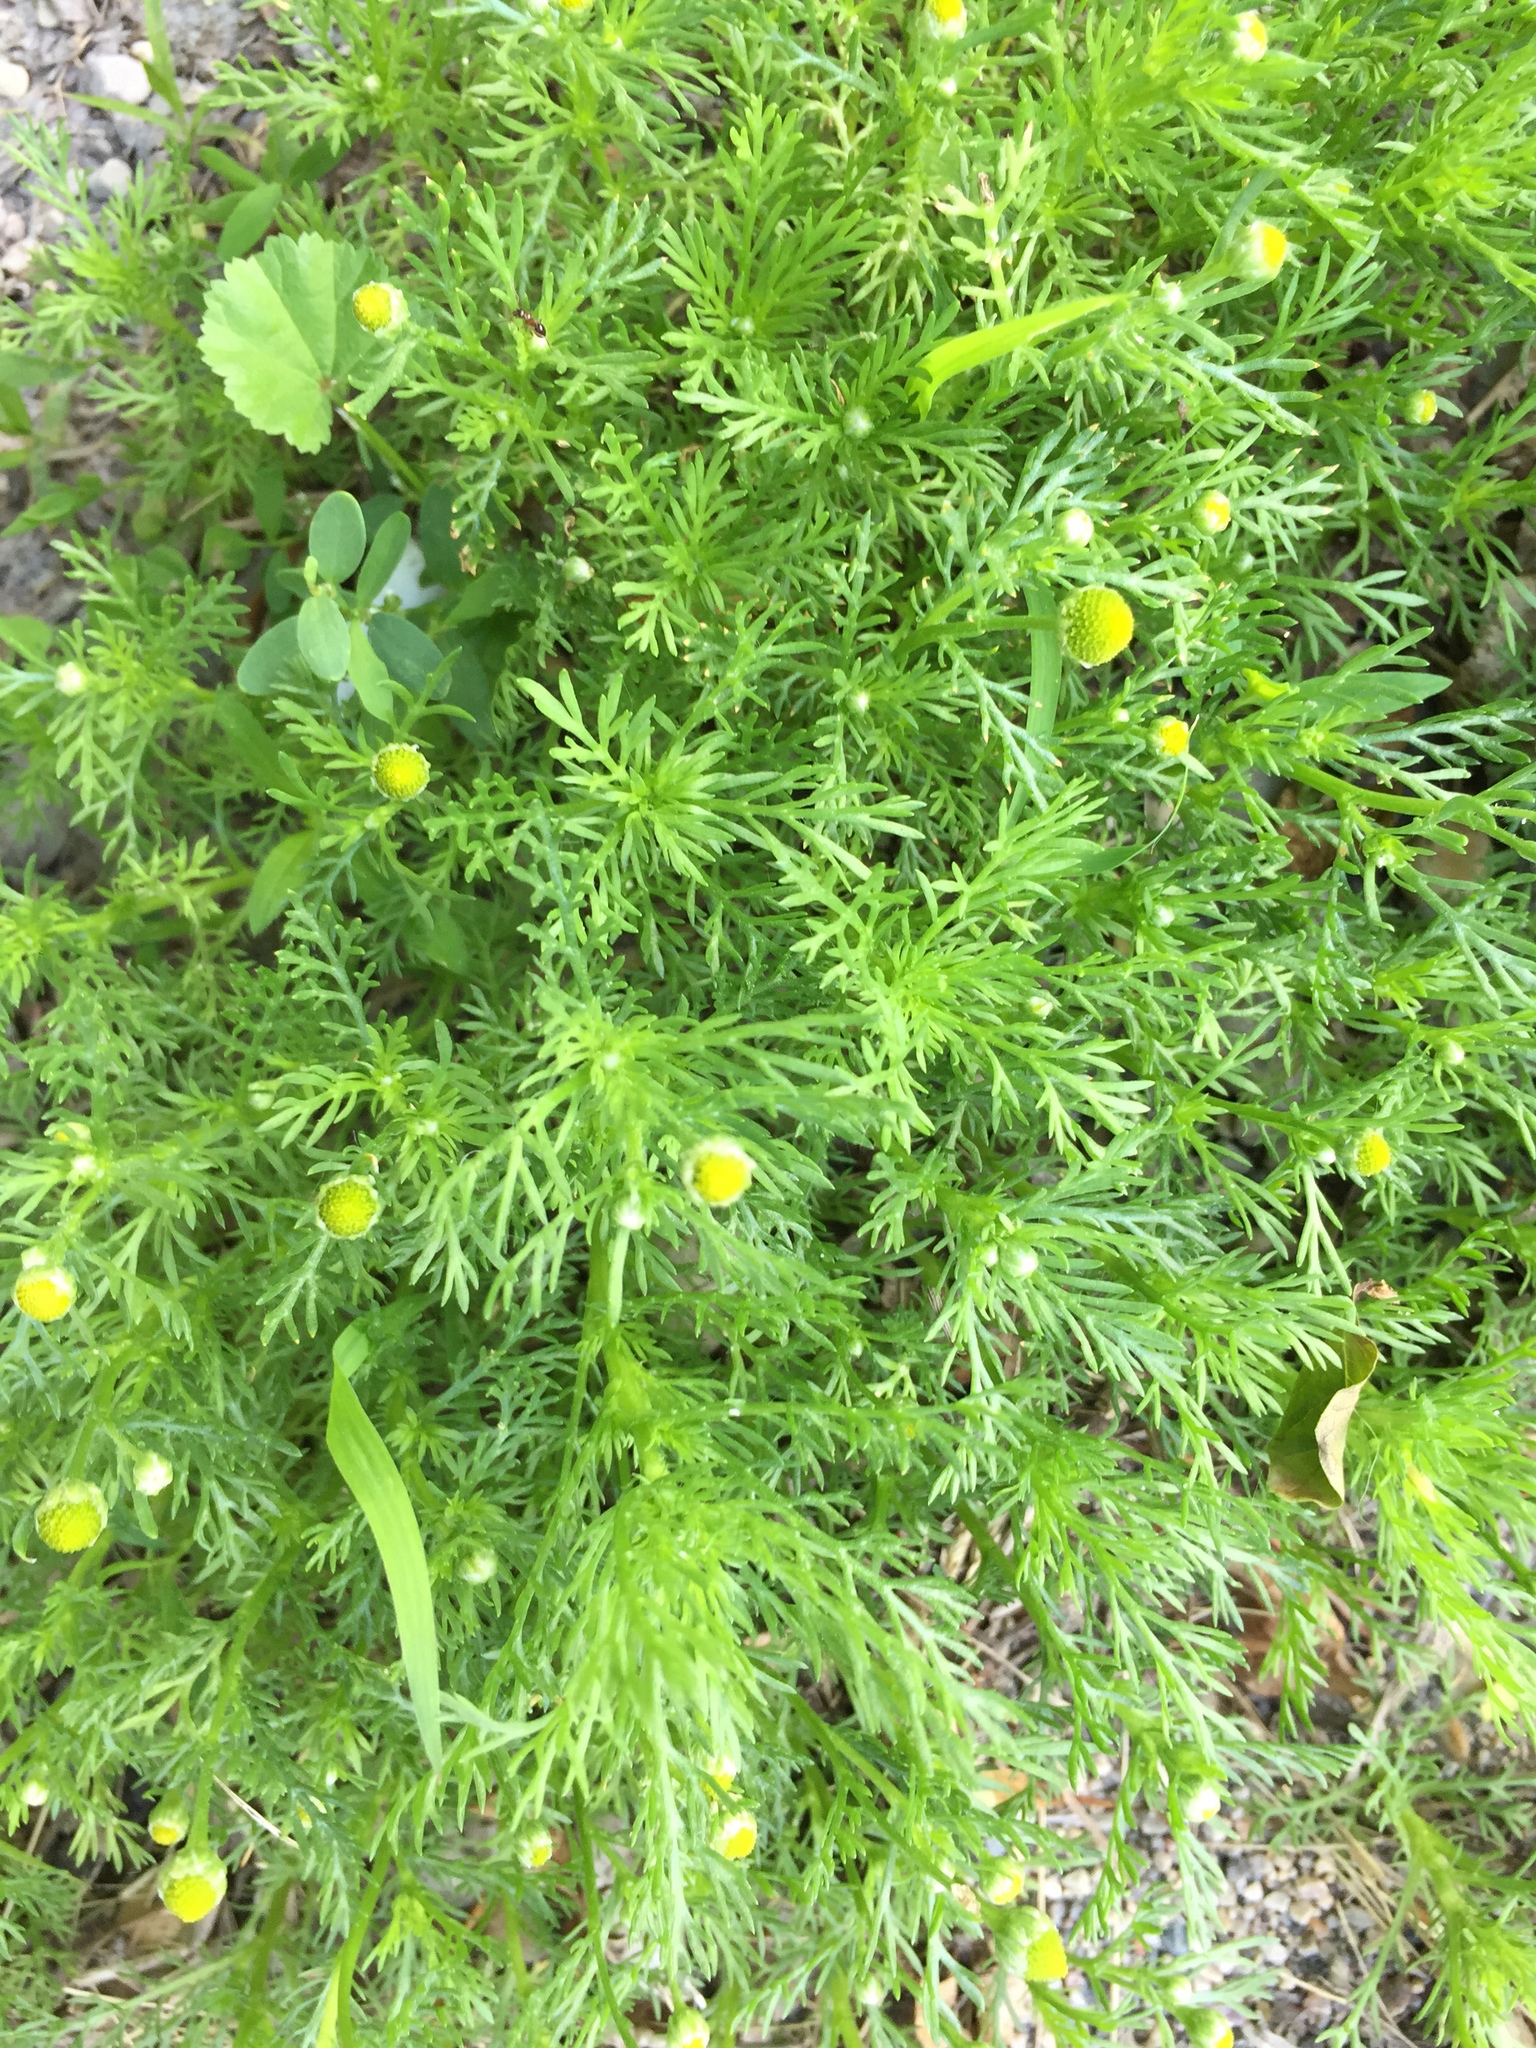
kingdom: Plantae
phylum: Tracheophyta
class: Magnoliopsida
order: Asterales
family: Asteraceae
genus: Matricaria
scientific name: Matricaria discoidea
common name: Disc mayweed
